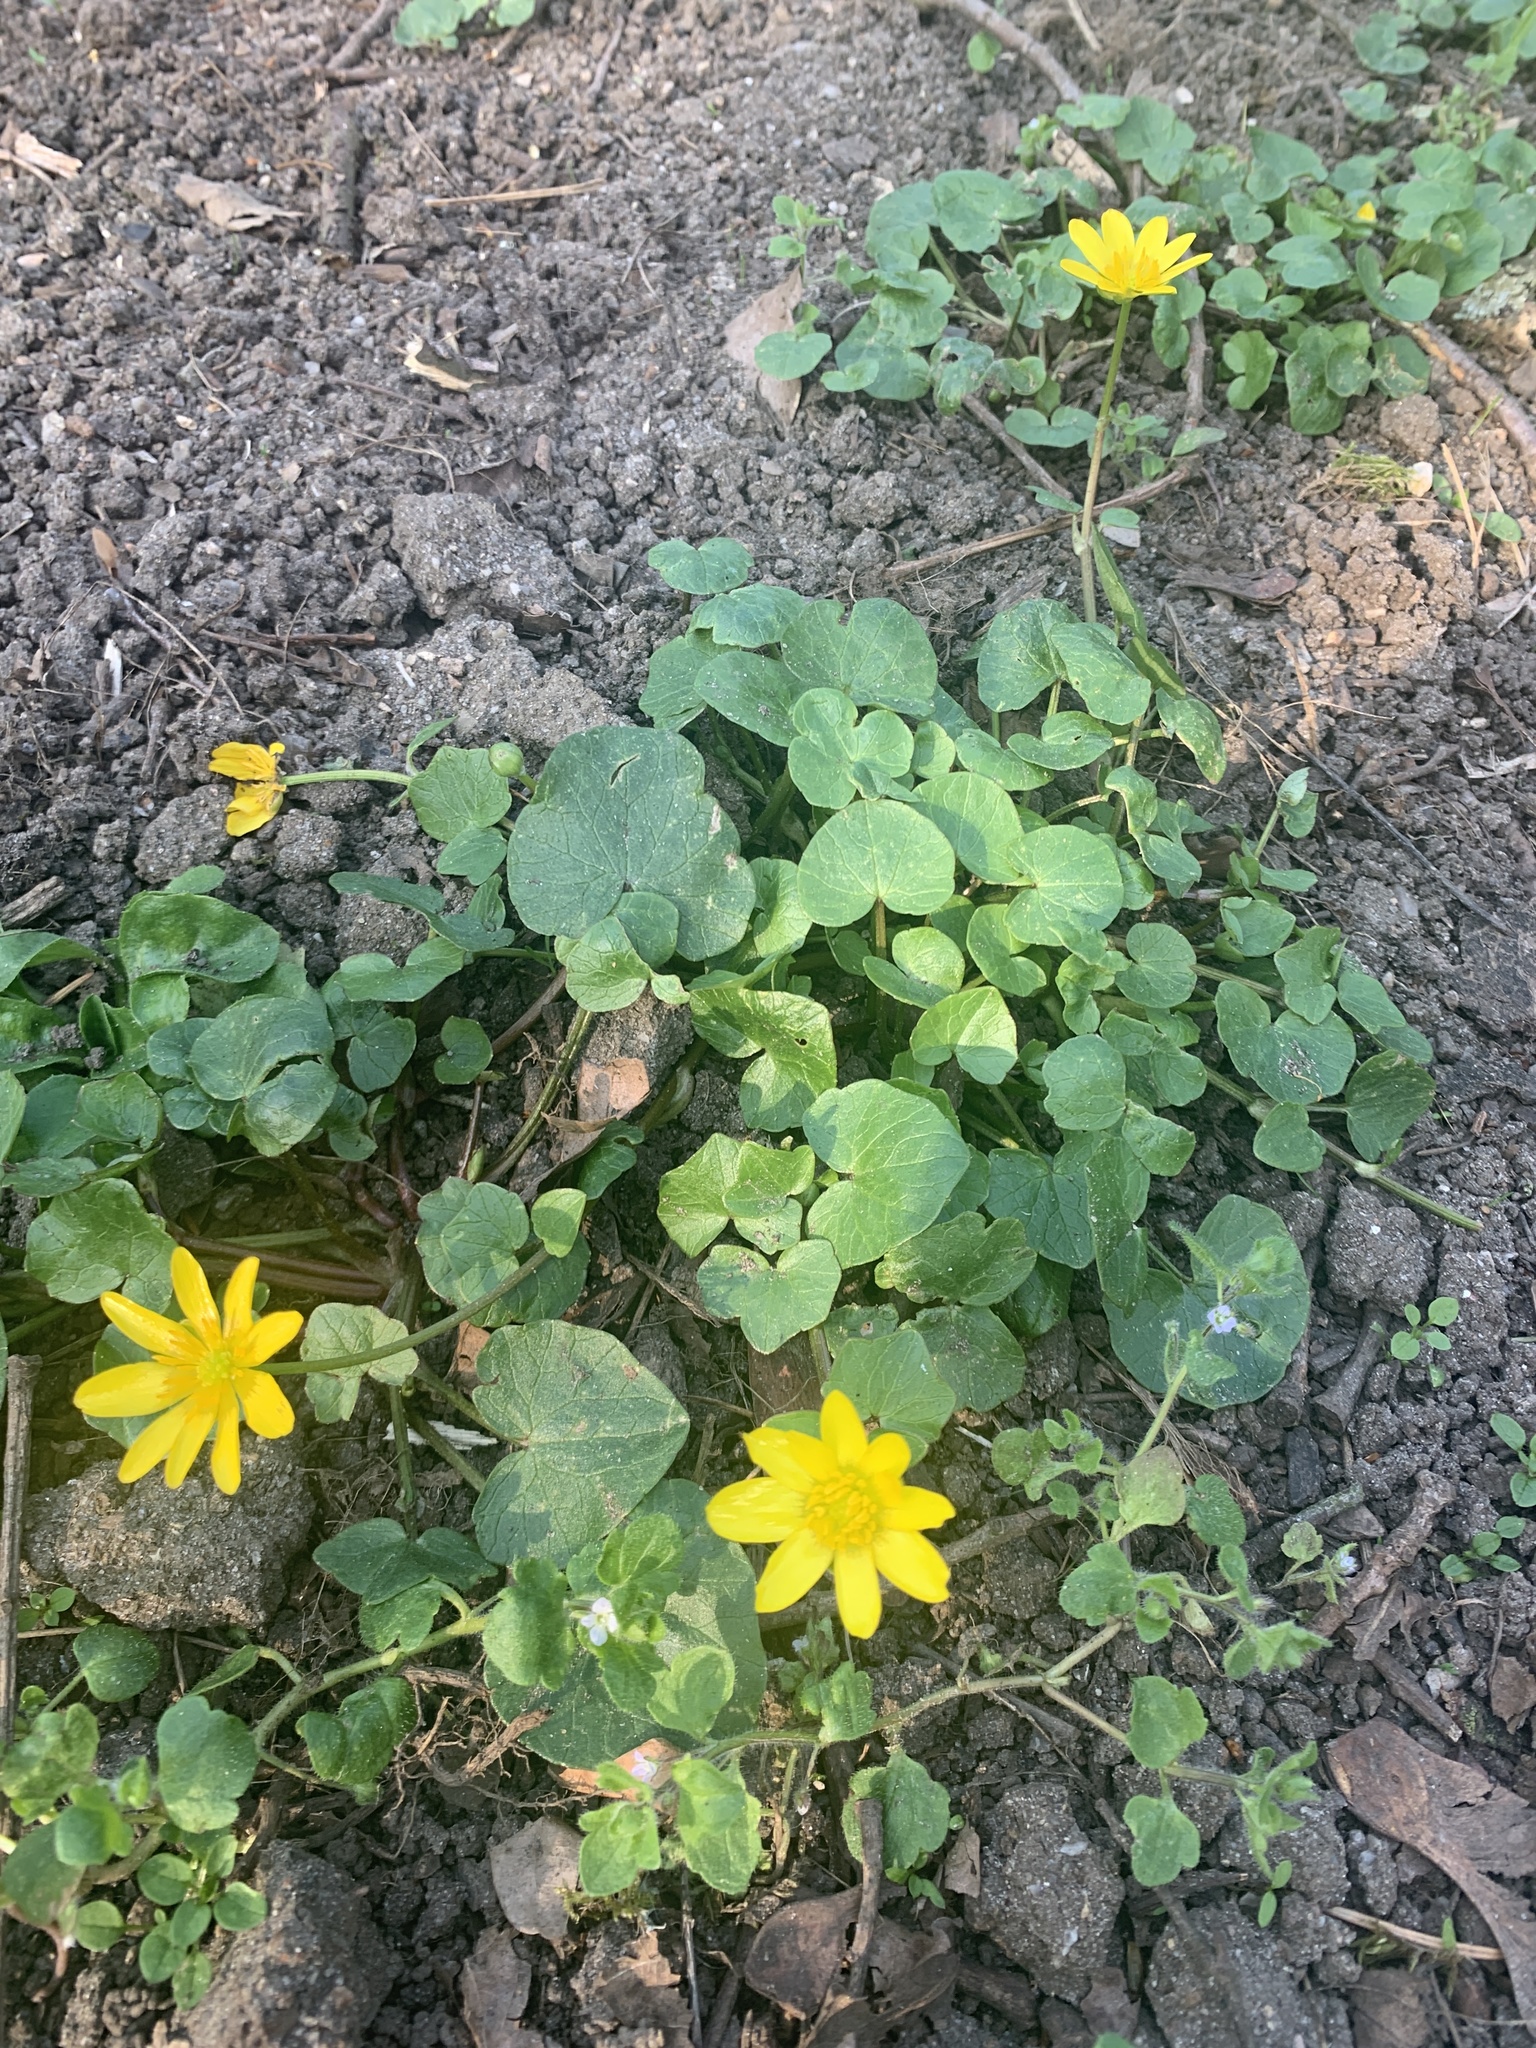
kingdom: Plantae
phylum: Tracheophyta
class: Magnoliopsida
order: Ranunculales
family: Ranunculaceae
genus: Ficaria
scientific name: Ficaria verna
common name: Lesser celandine
